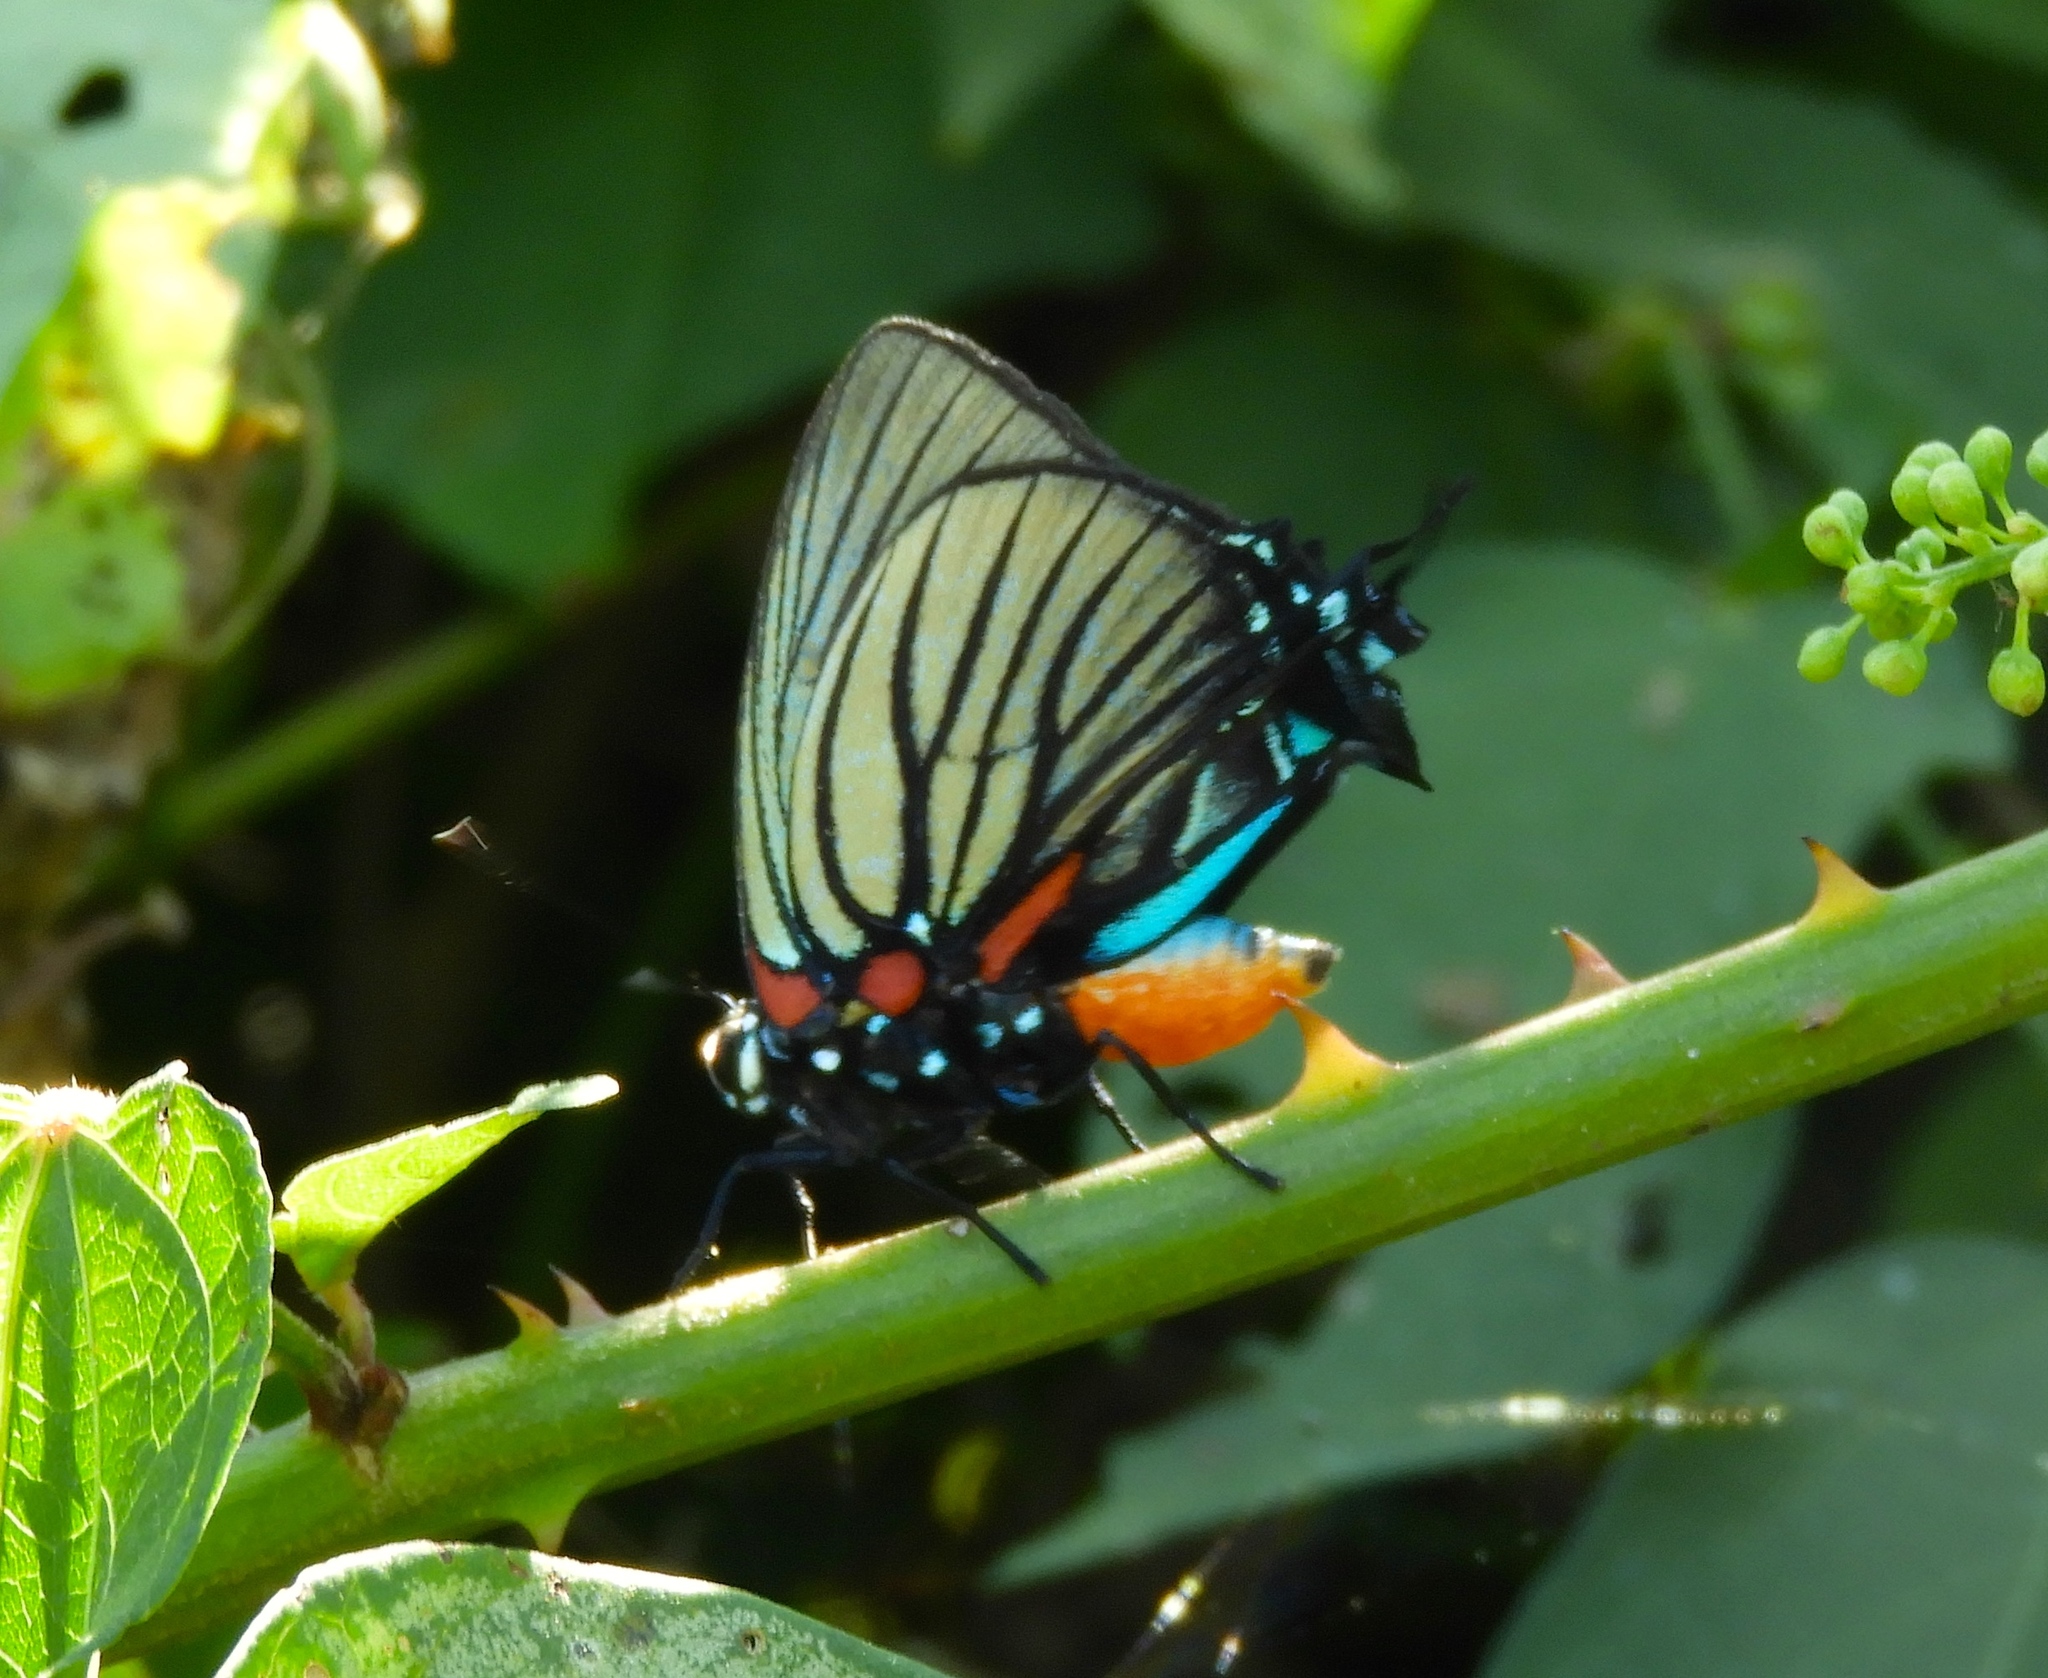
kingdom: Animalia
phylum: Arthropoda
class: Insecta
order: Lepidoptera
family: Lycaenidae
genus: Thecla
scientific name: Thecla polybe
